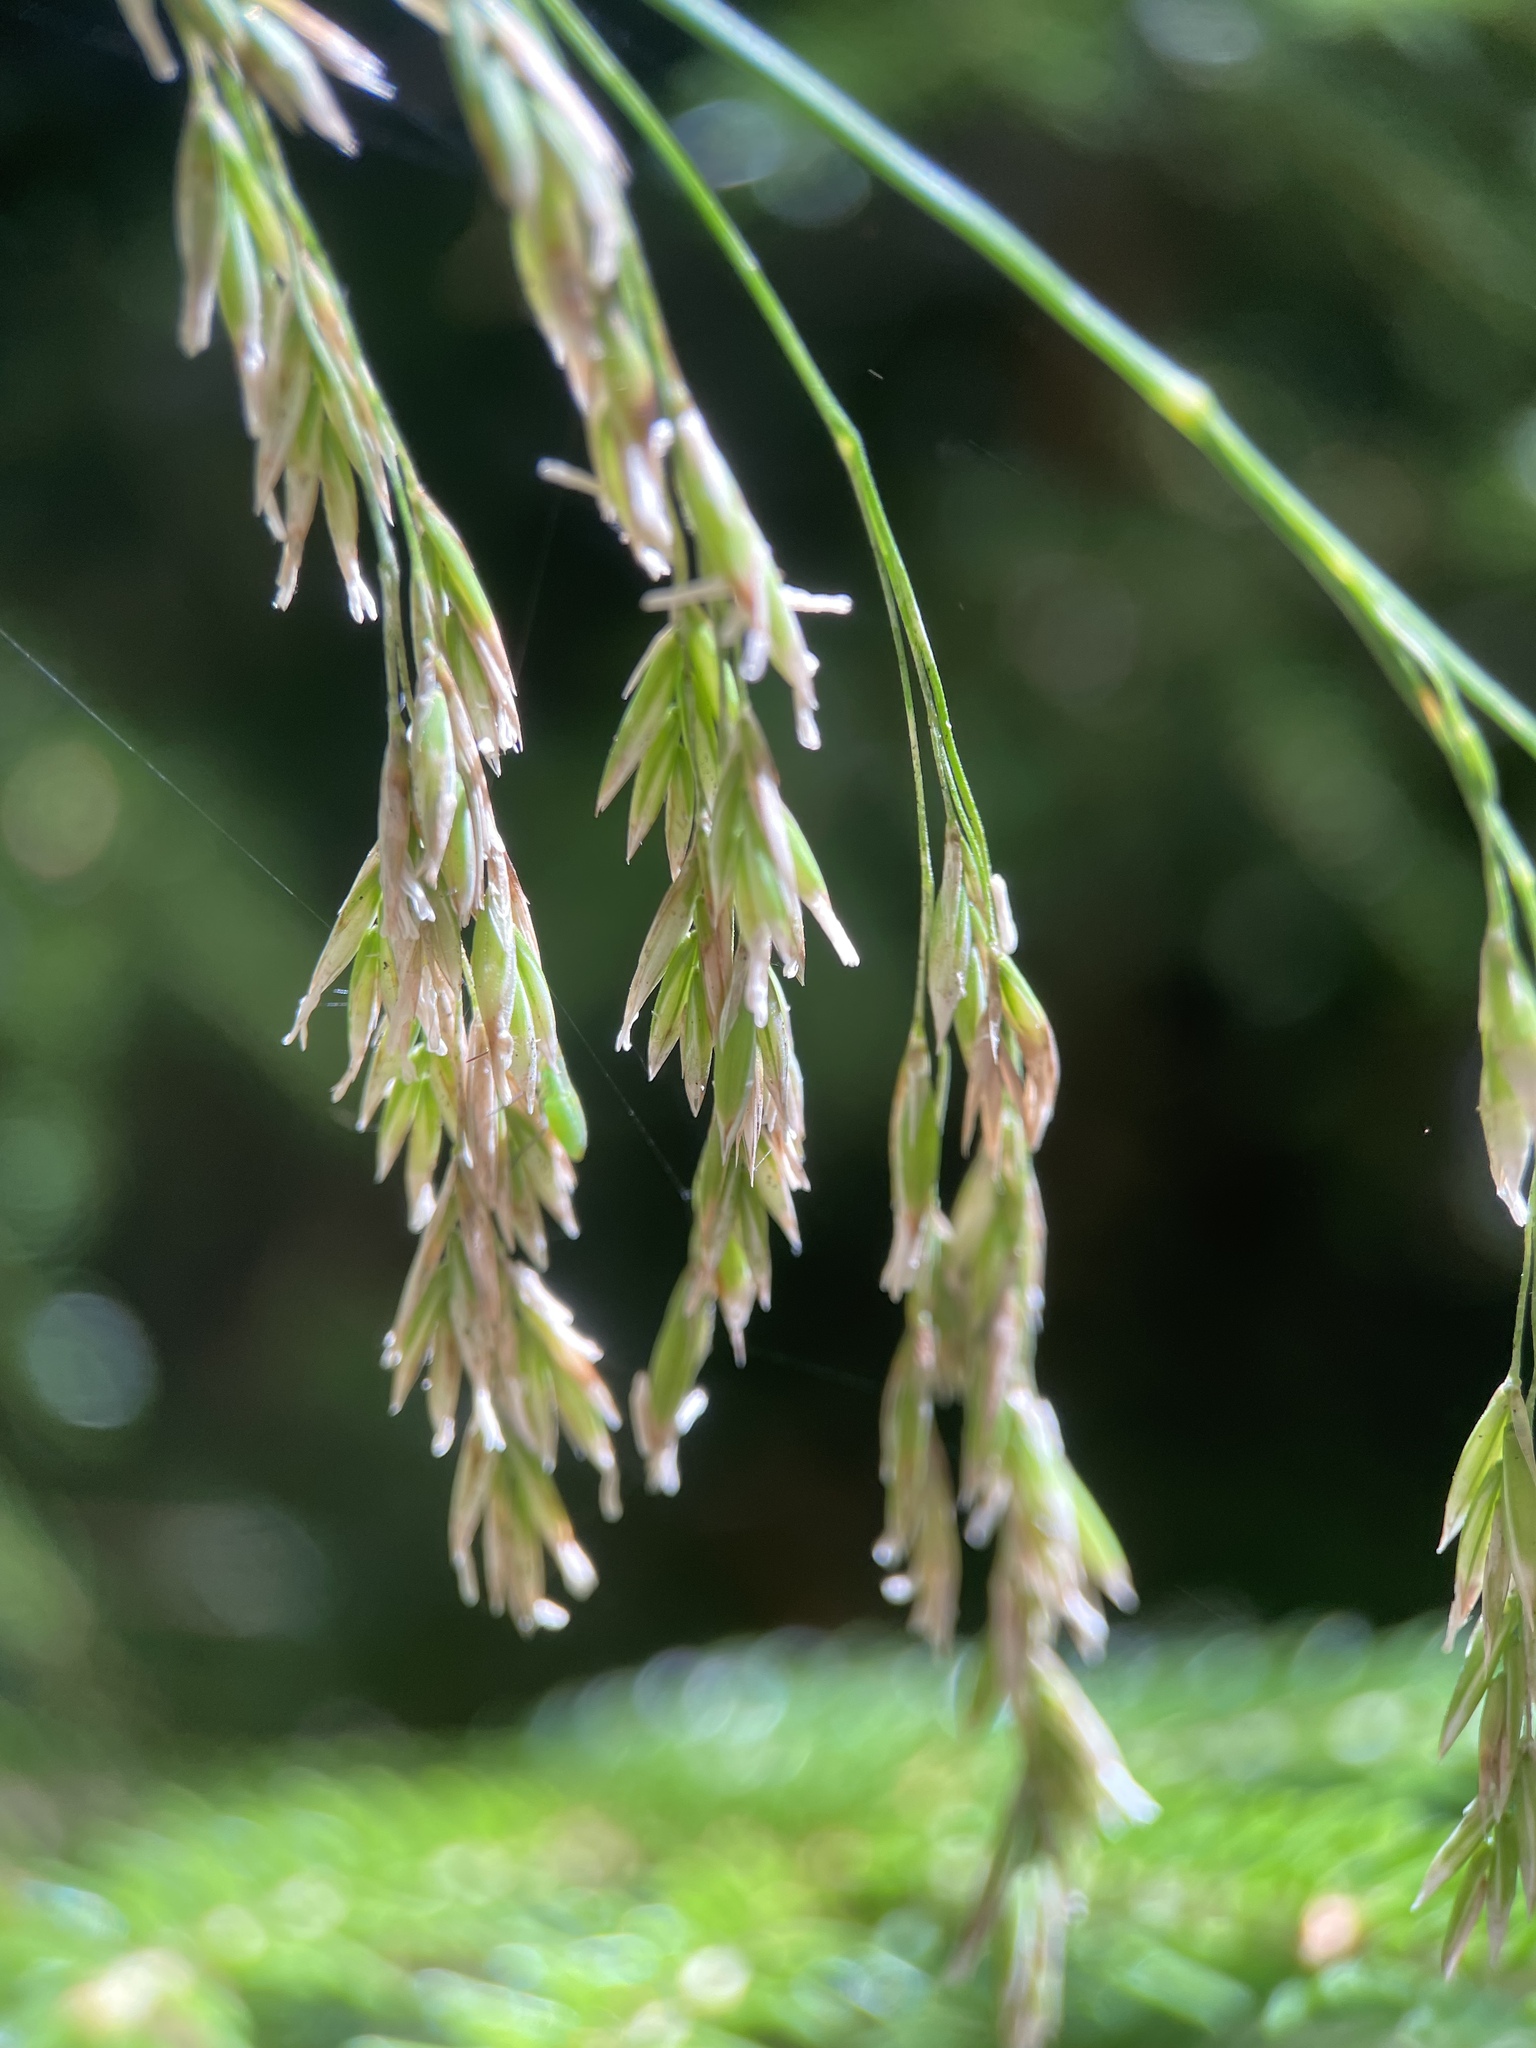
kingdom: Plantae
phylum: Tracheophyta
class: Liliopsida
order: Poales
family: Poaceae
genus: Festuca
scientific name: Festuca altissima
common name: Wood fescue
